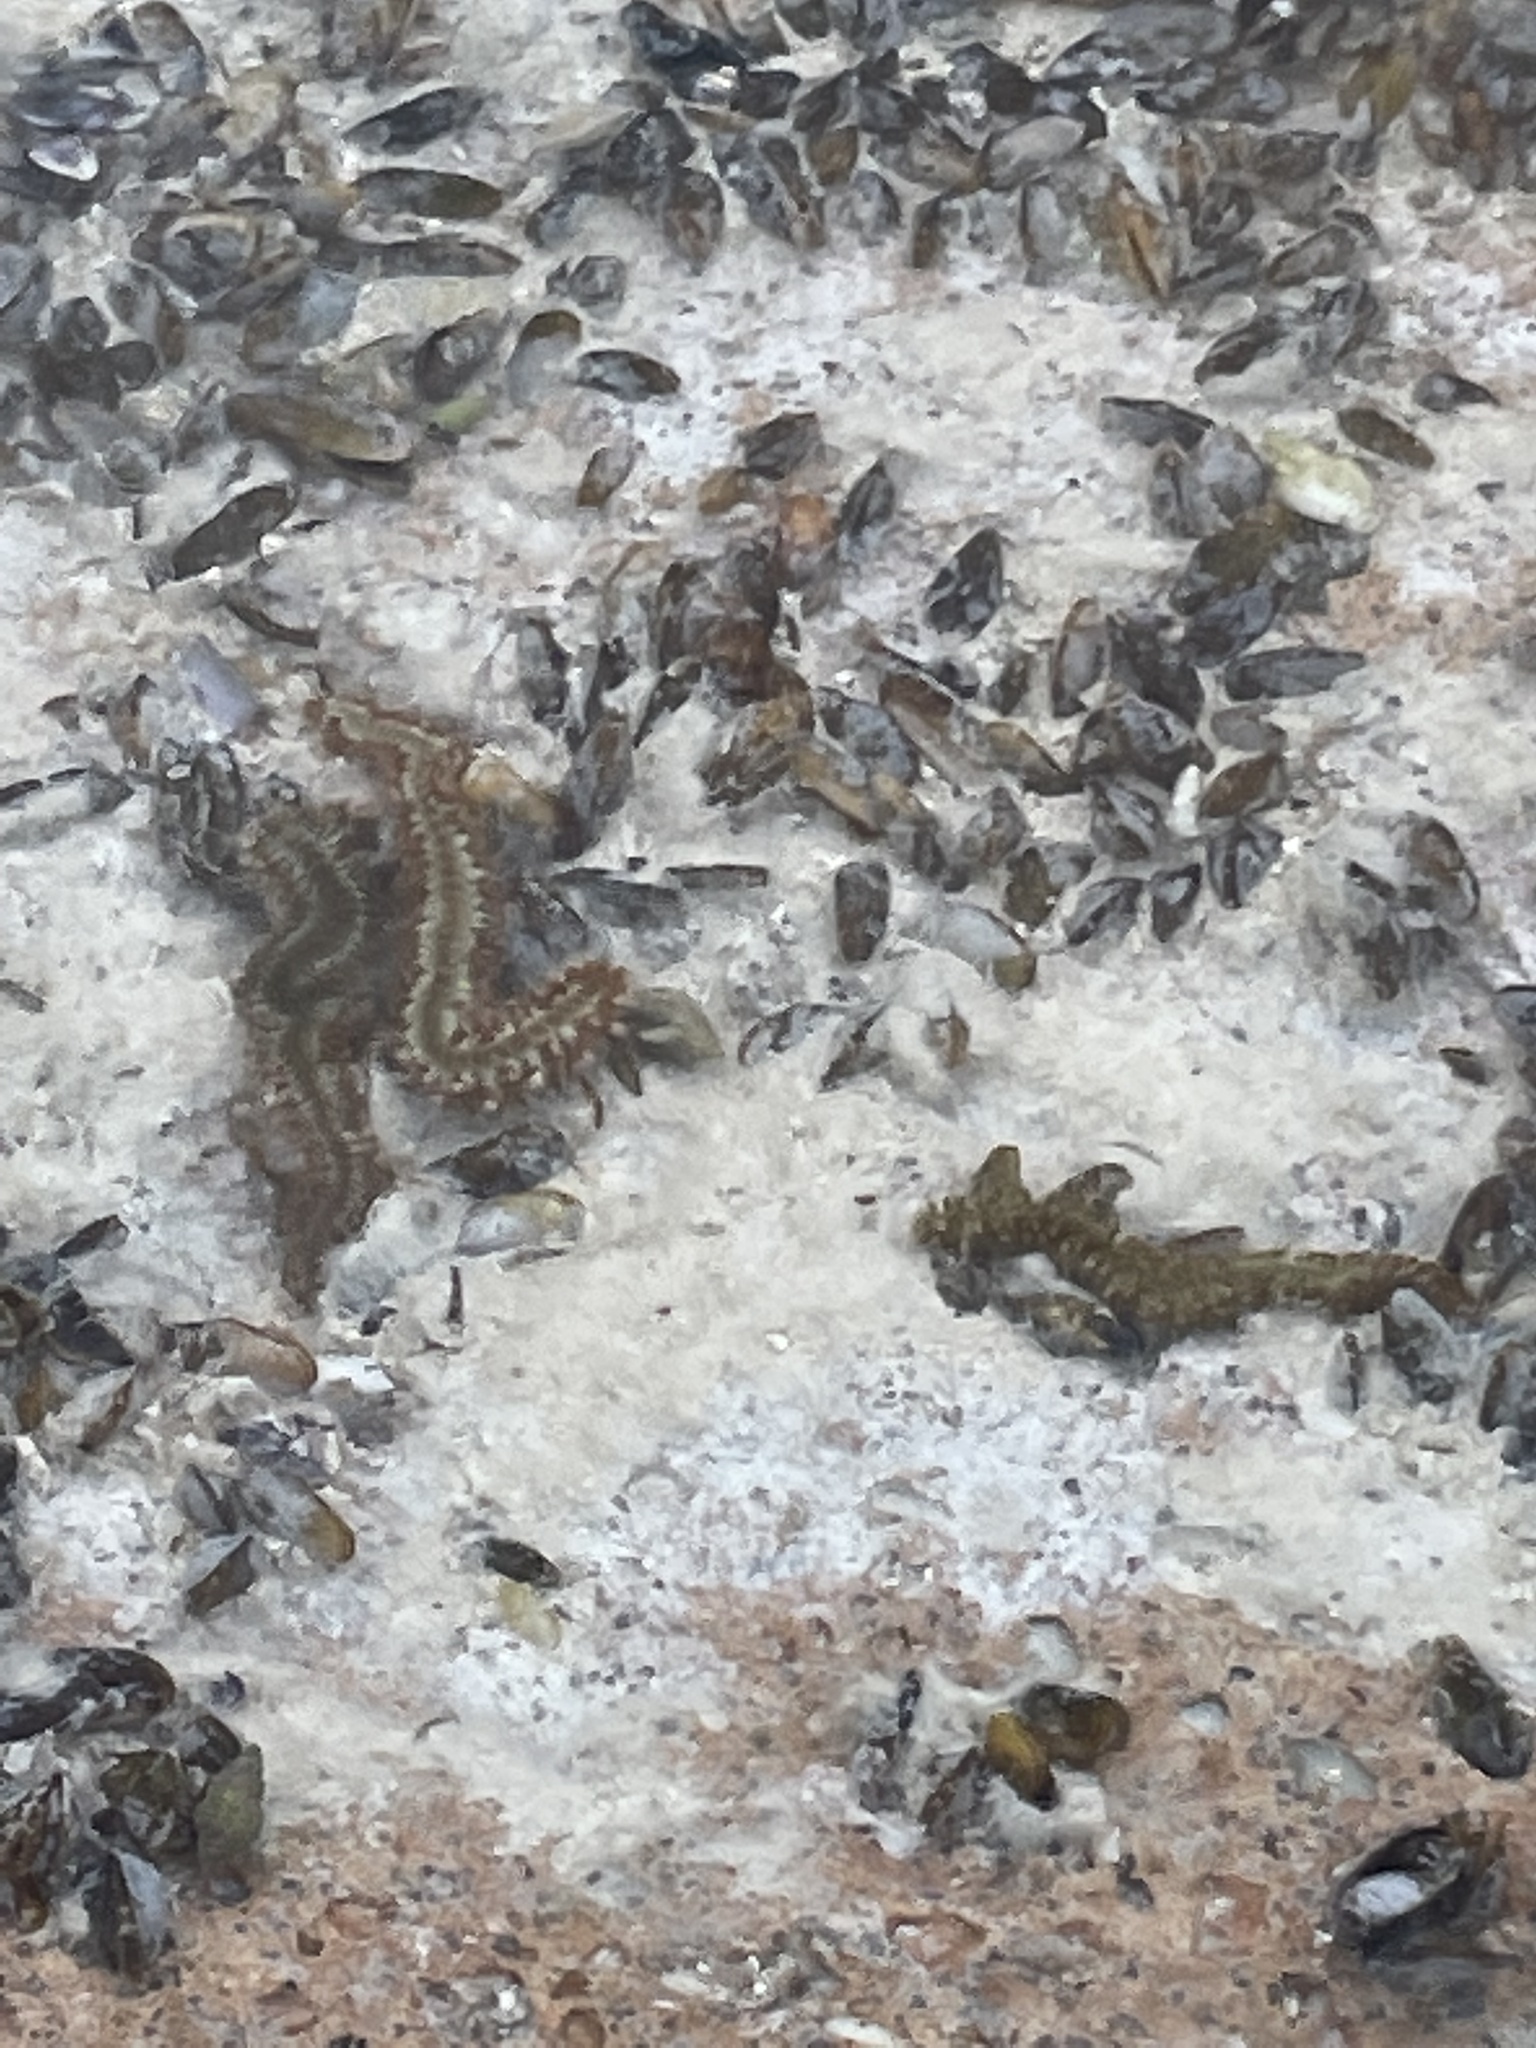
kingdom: Animalia
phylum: Annelida
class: Polychaeta
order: Amphinomida
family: Amphinomidae
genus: Hermodice
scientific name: Hermodice carunculata
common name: Bearded fireworm
